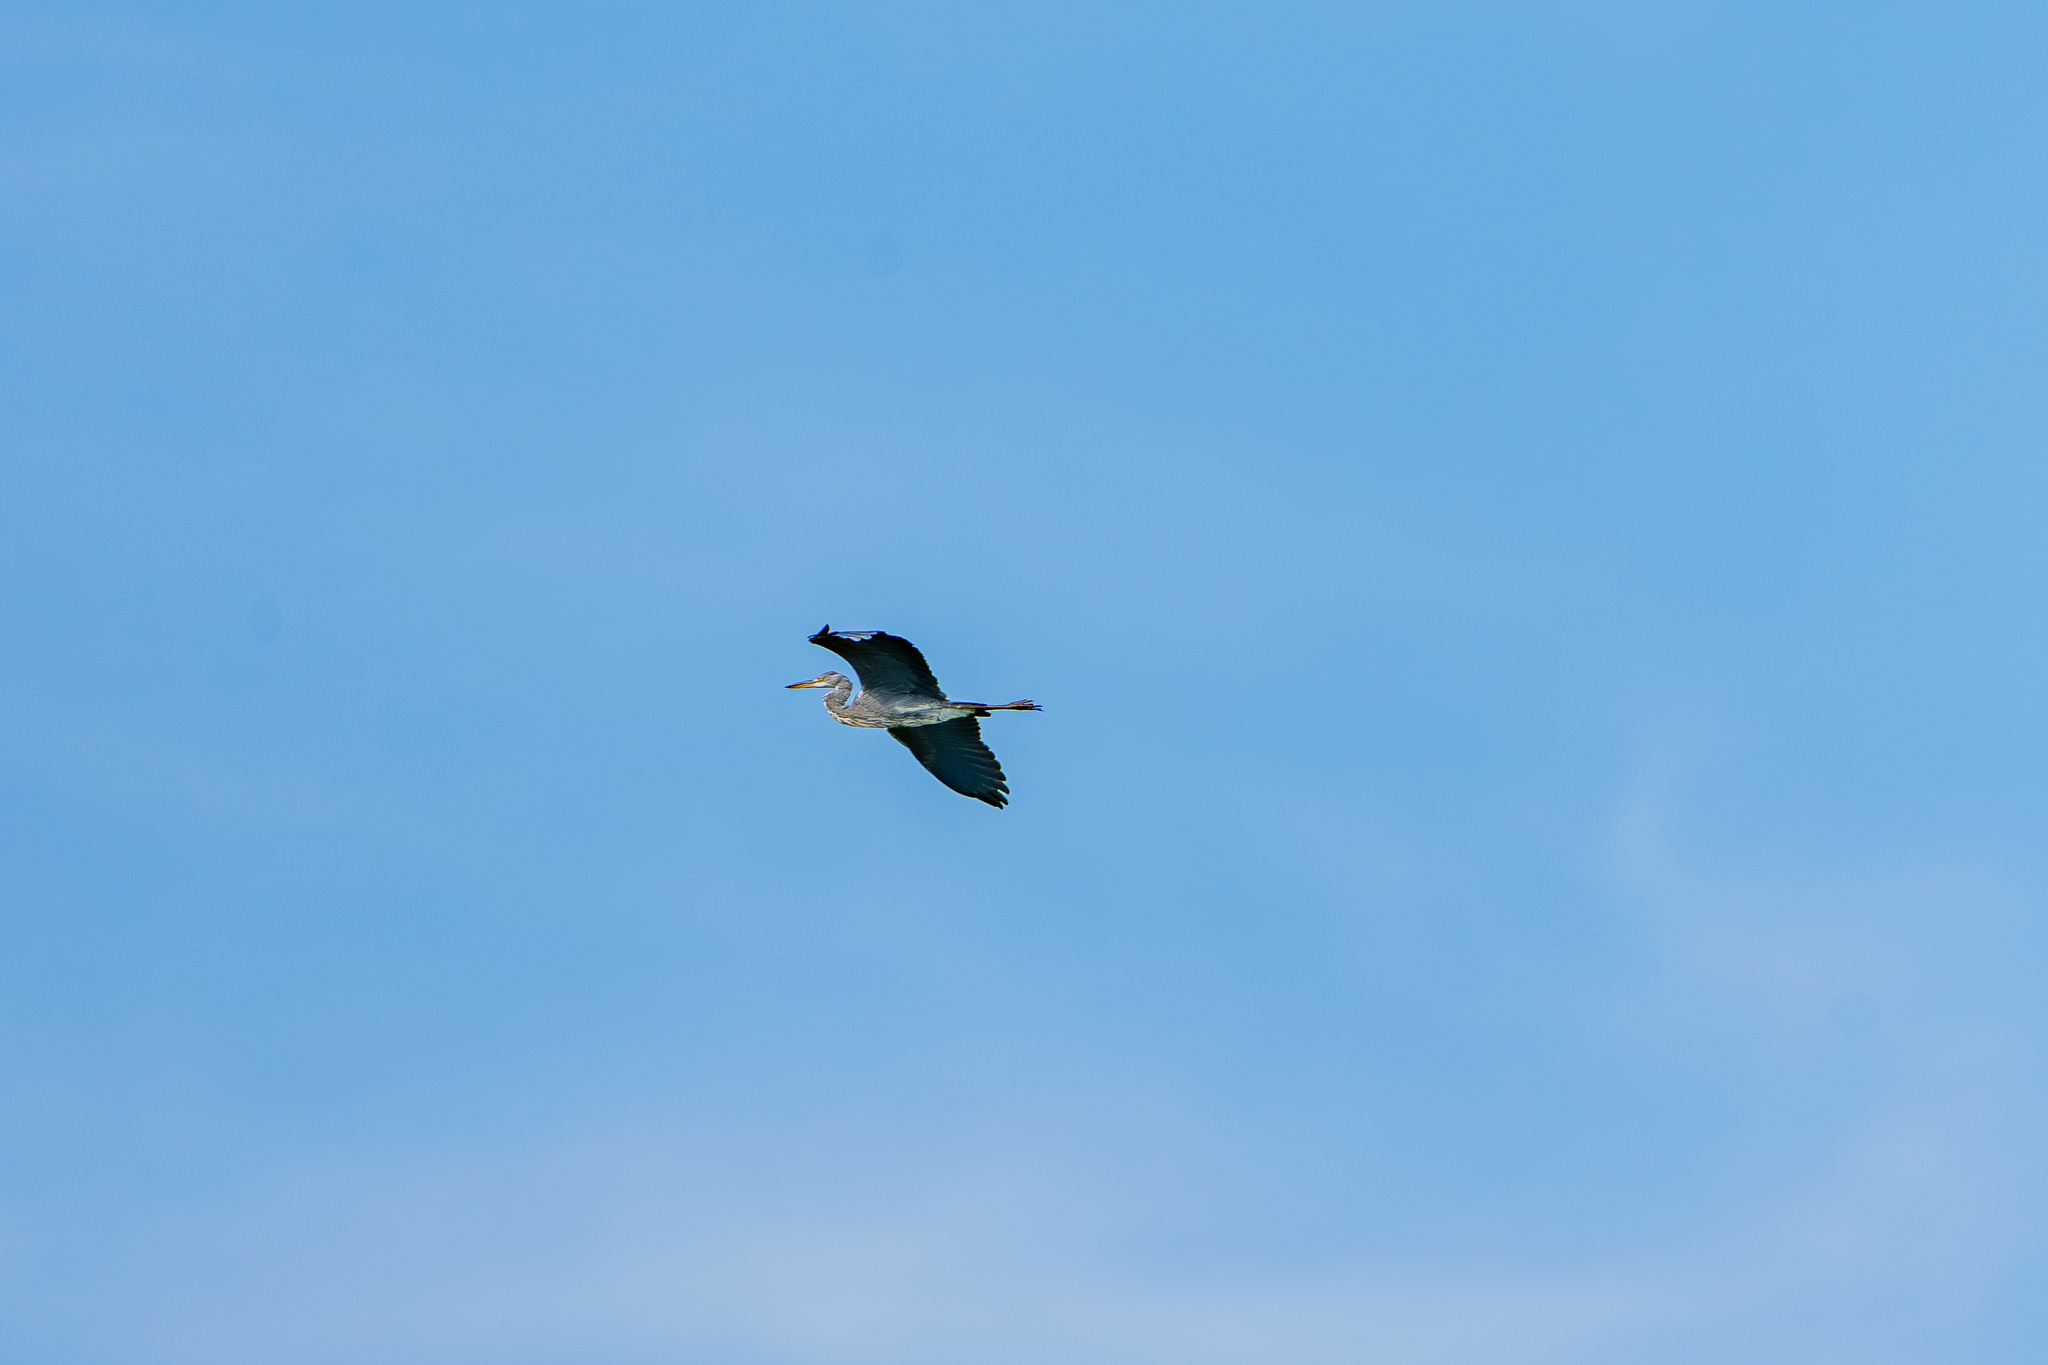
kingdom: Animalia
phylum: Chordata
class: Aves
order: Pelecaniformes
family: Ardeidae
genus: Ardea
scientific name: Ardea cinerea
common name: Grey heron
